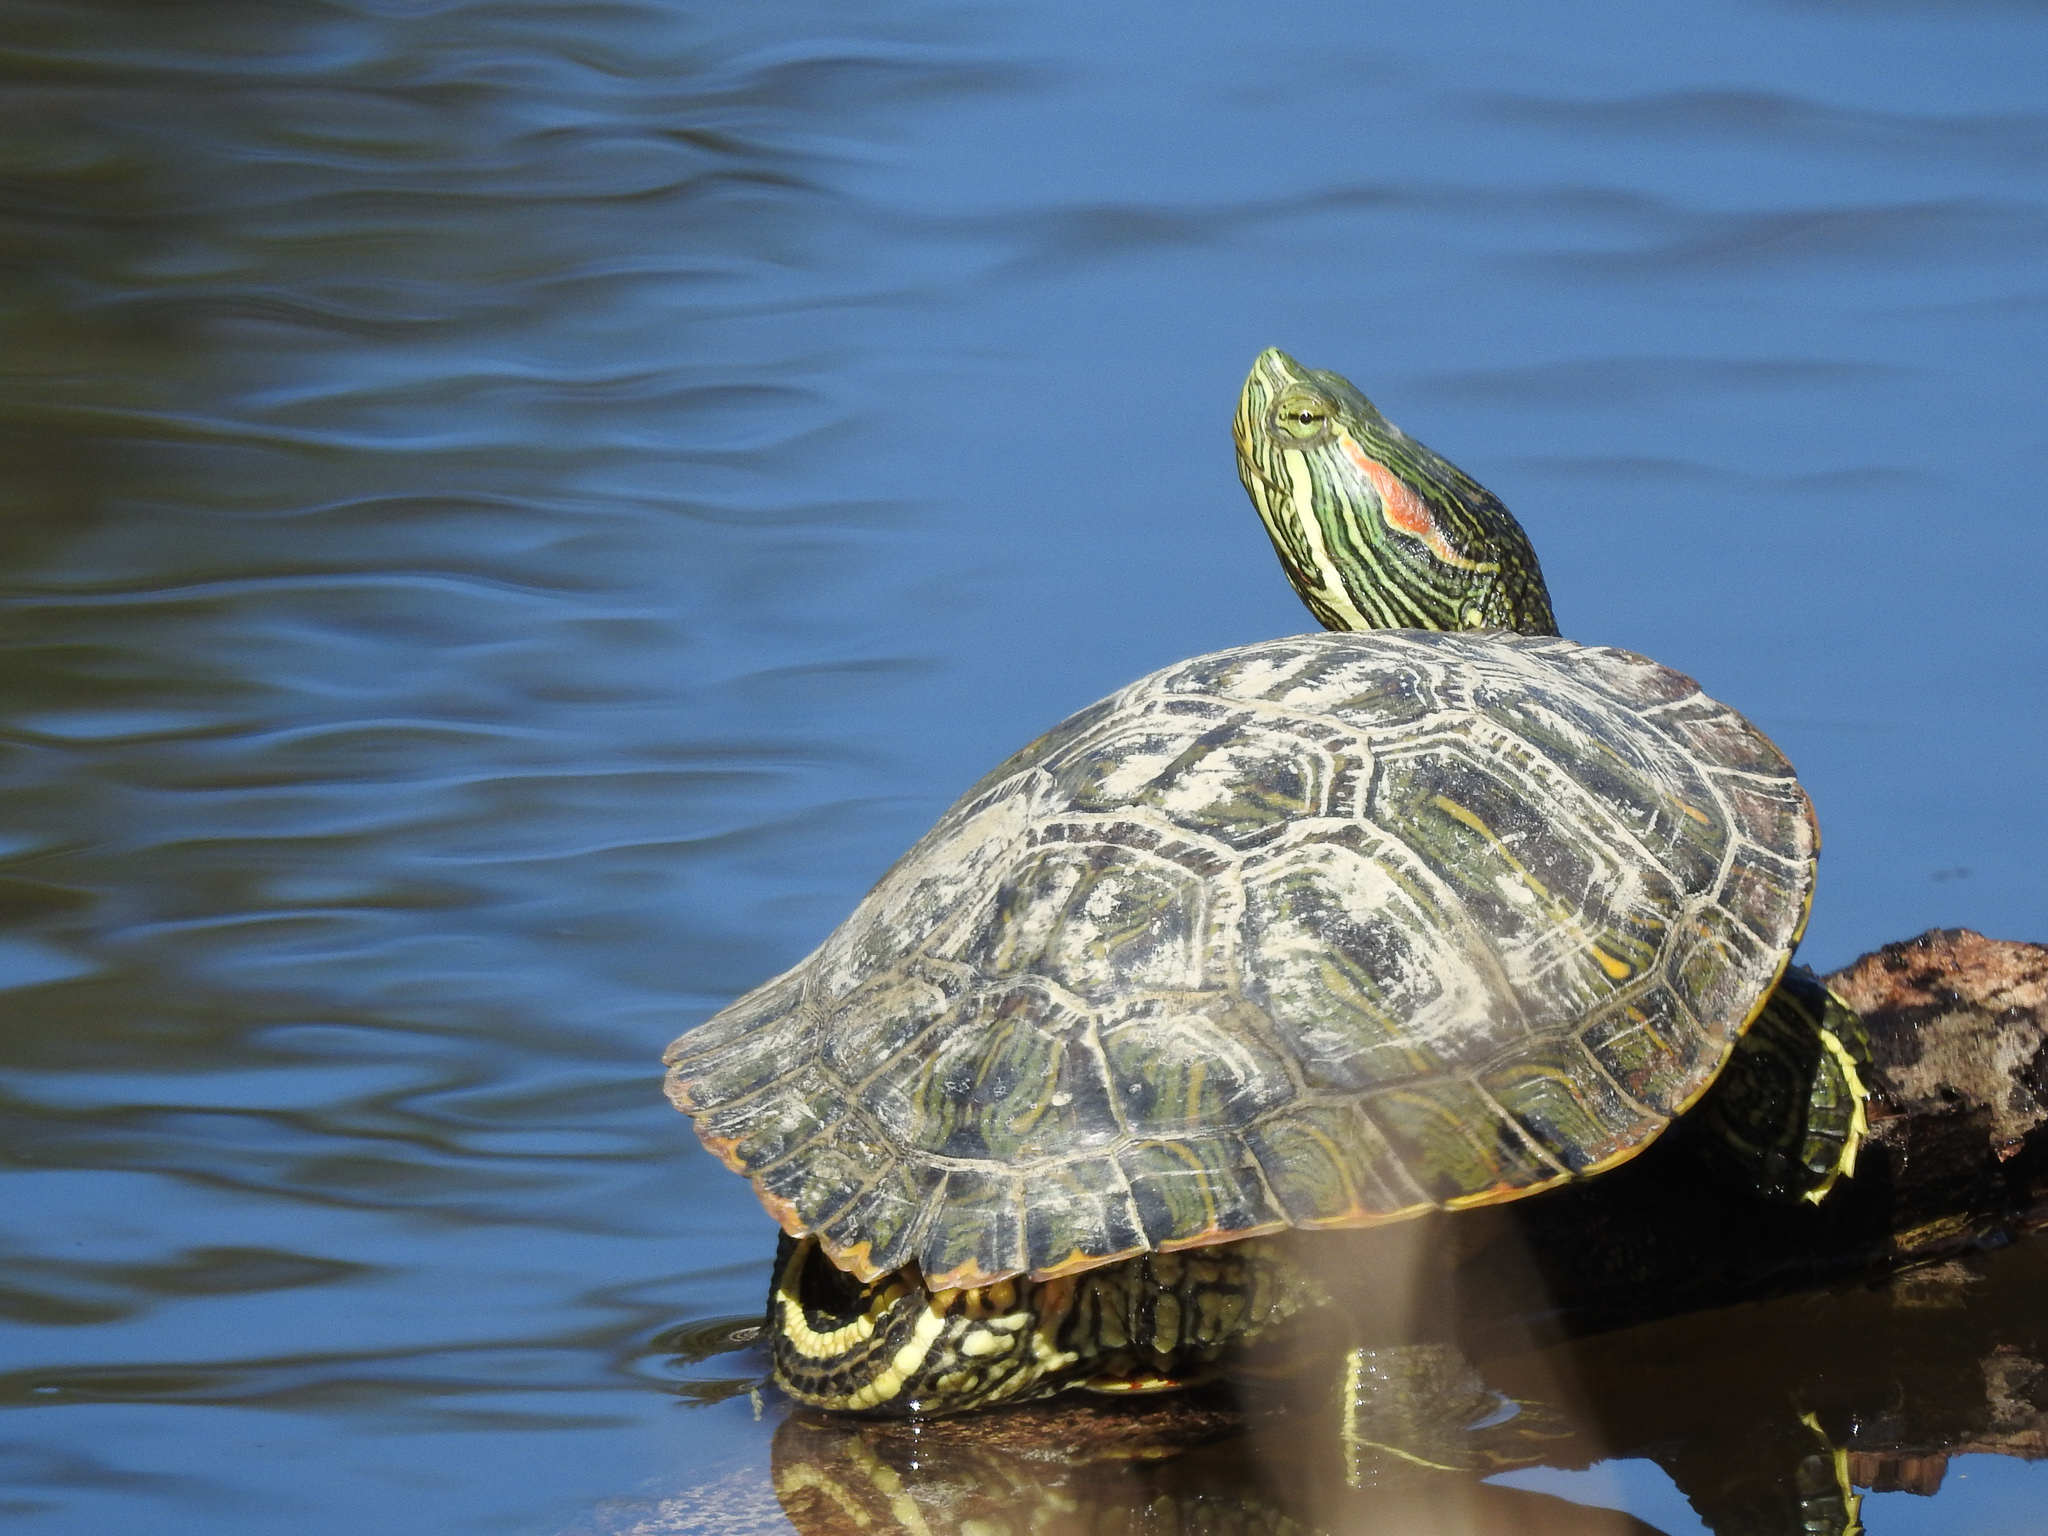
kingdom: Animalia
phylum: Chordata
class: Testudines
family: Emydidae
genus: Trachemys
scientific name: Trachemys scripta
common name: Slider
